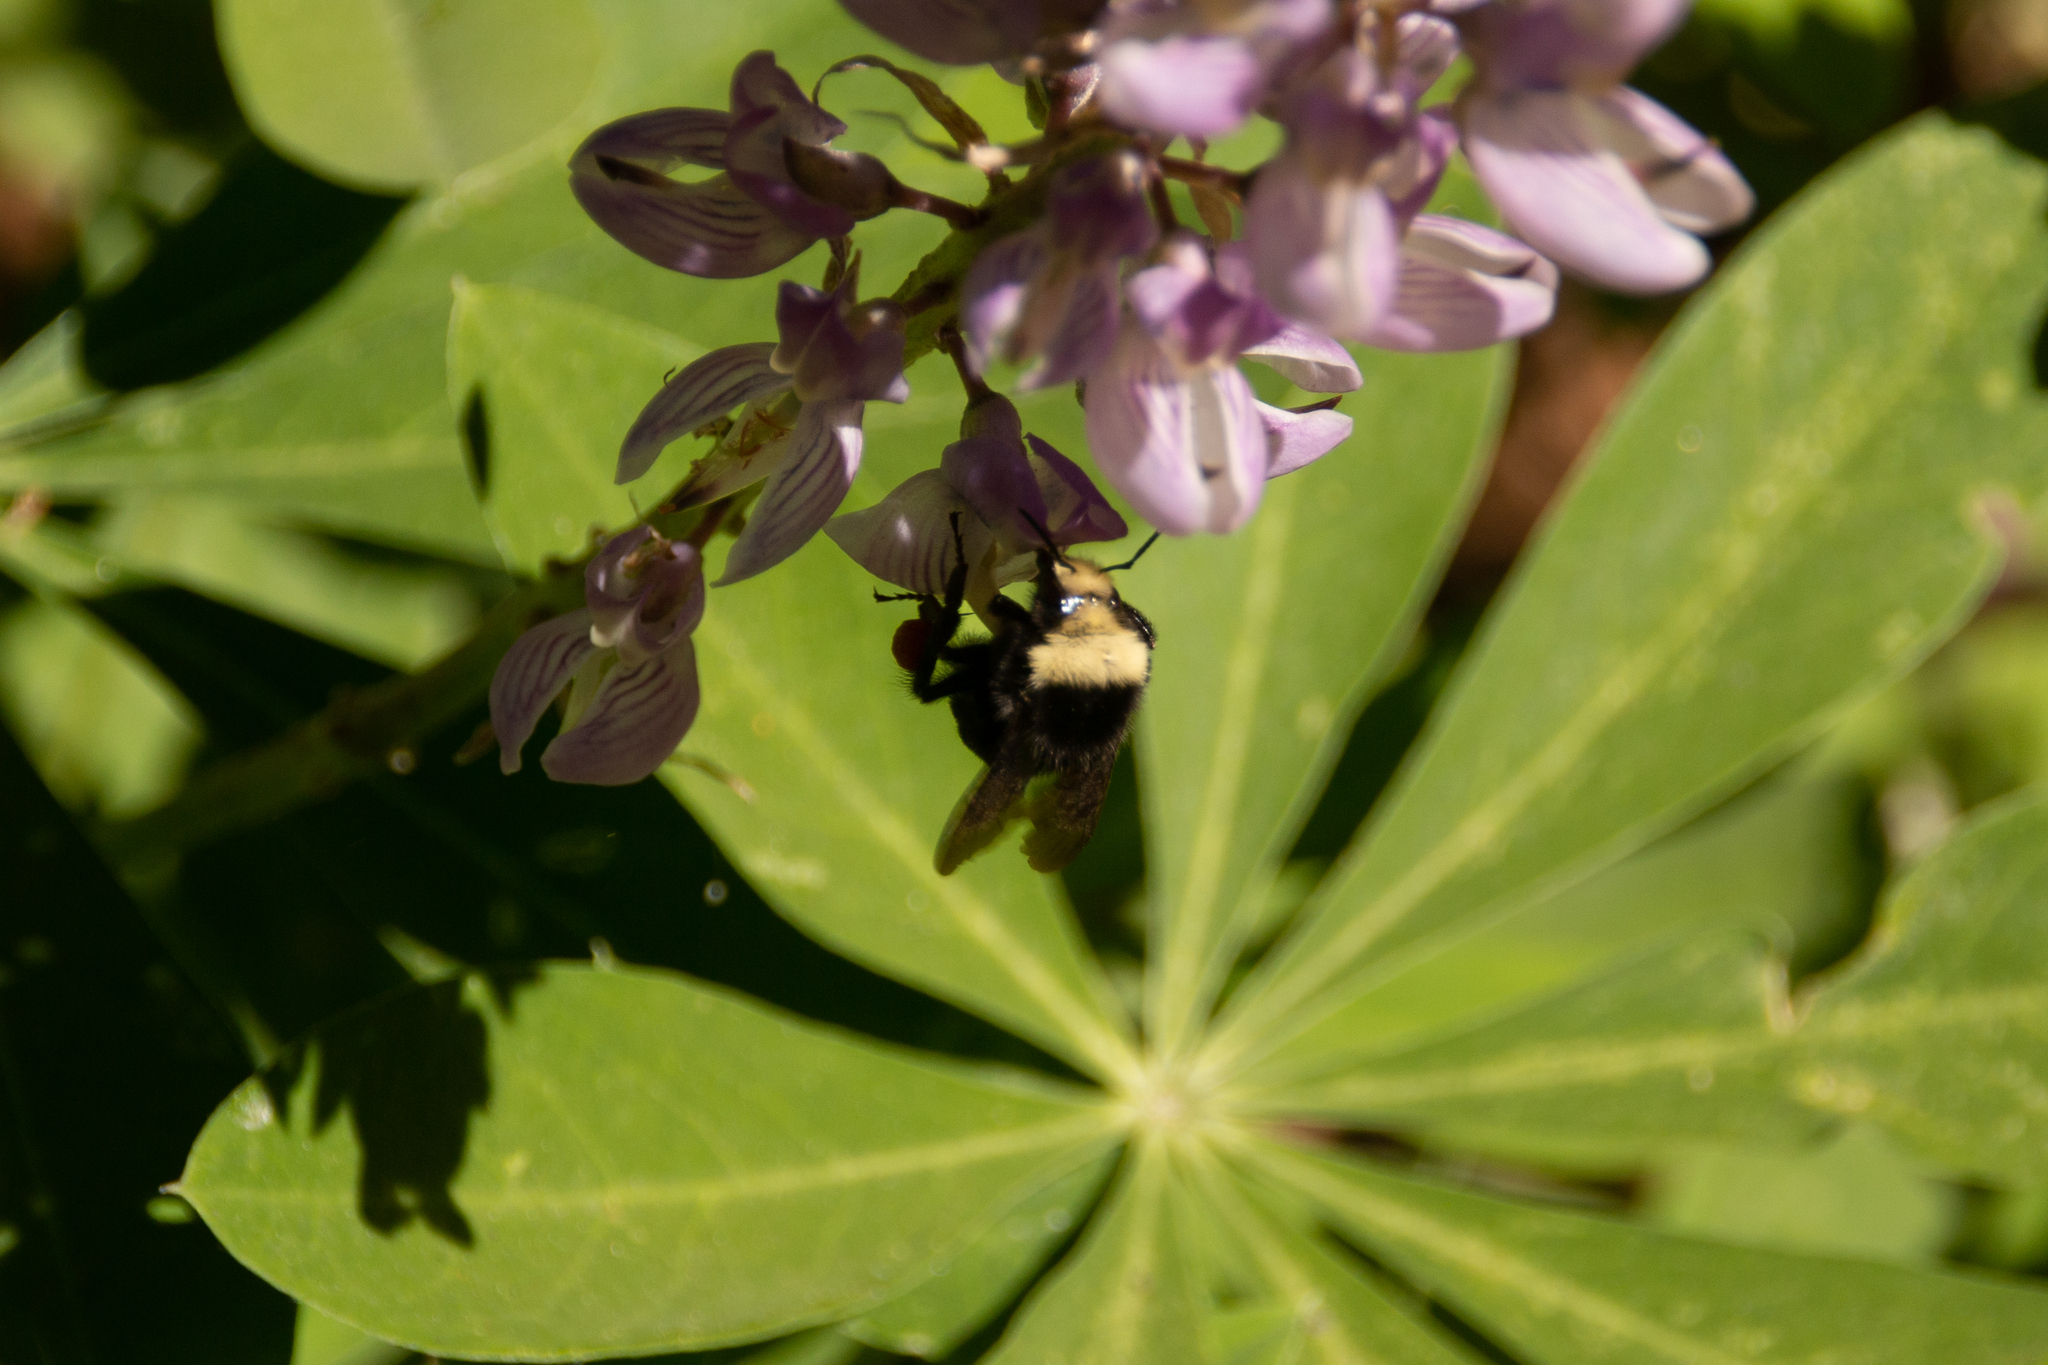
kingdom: Animalia
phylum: Arthropoda
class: Insecta
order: Hymenoptera
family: Apidae
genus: Bombus
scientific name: Bombus vosnesenskii
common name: Vosnesensky bumble bee
